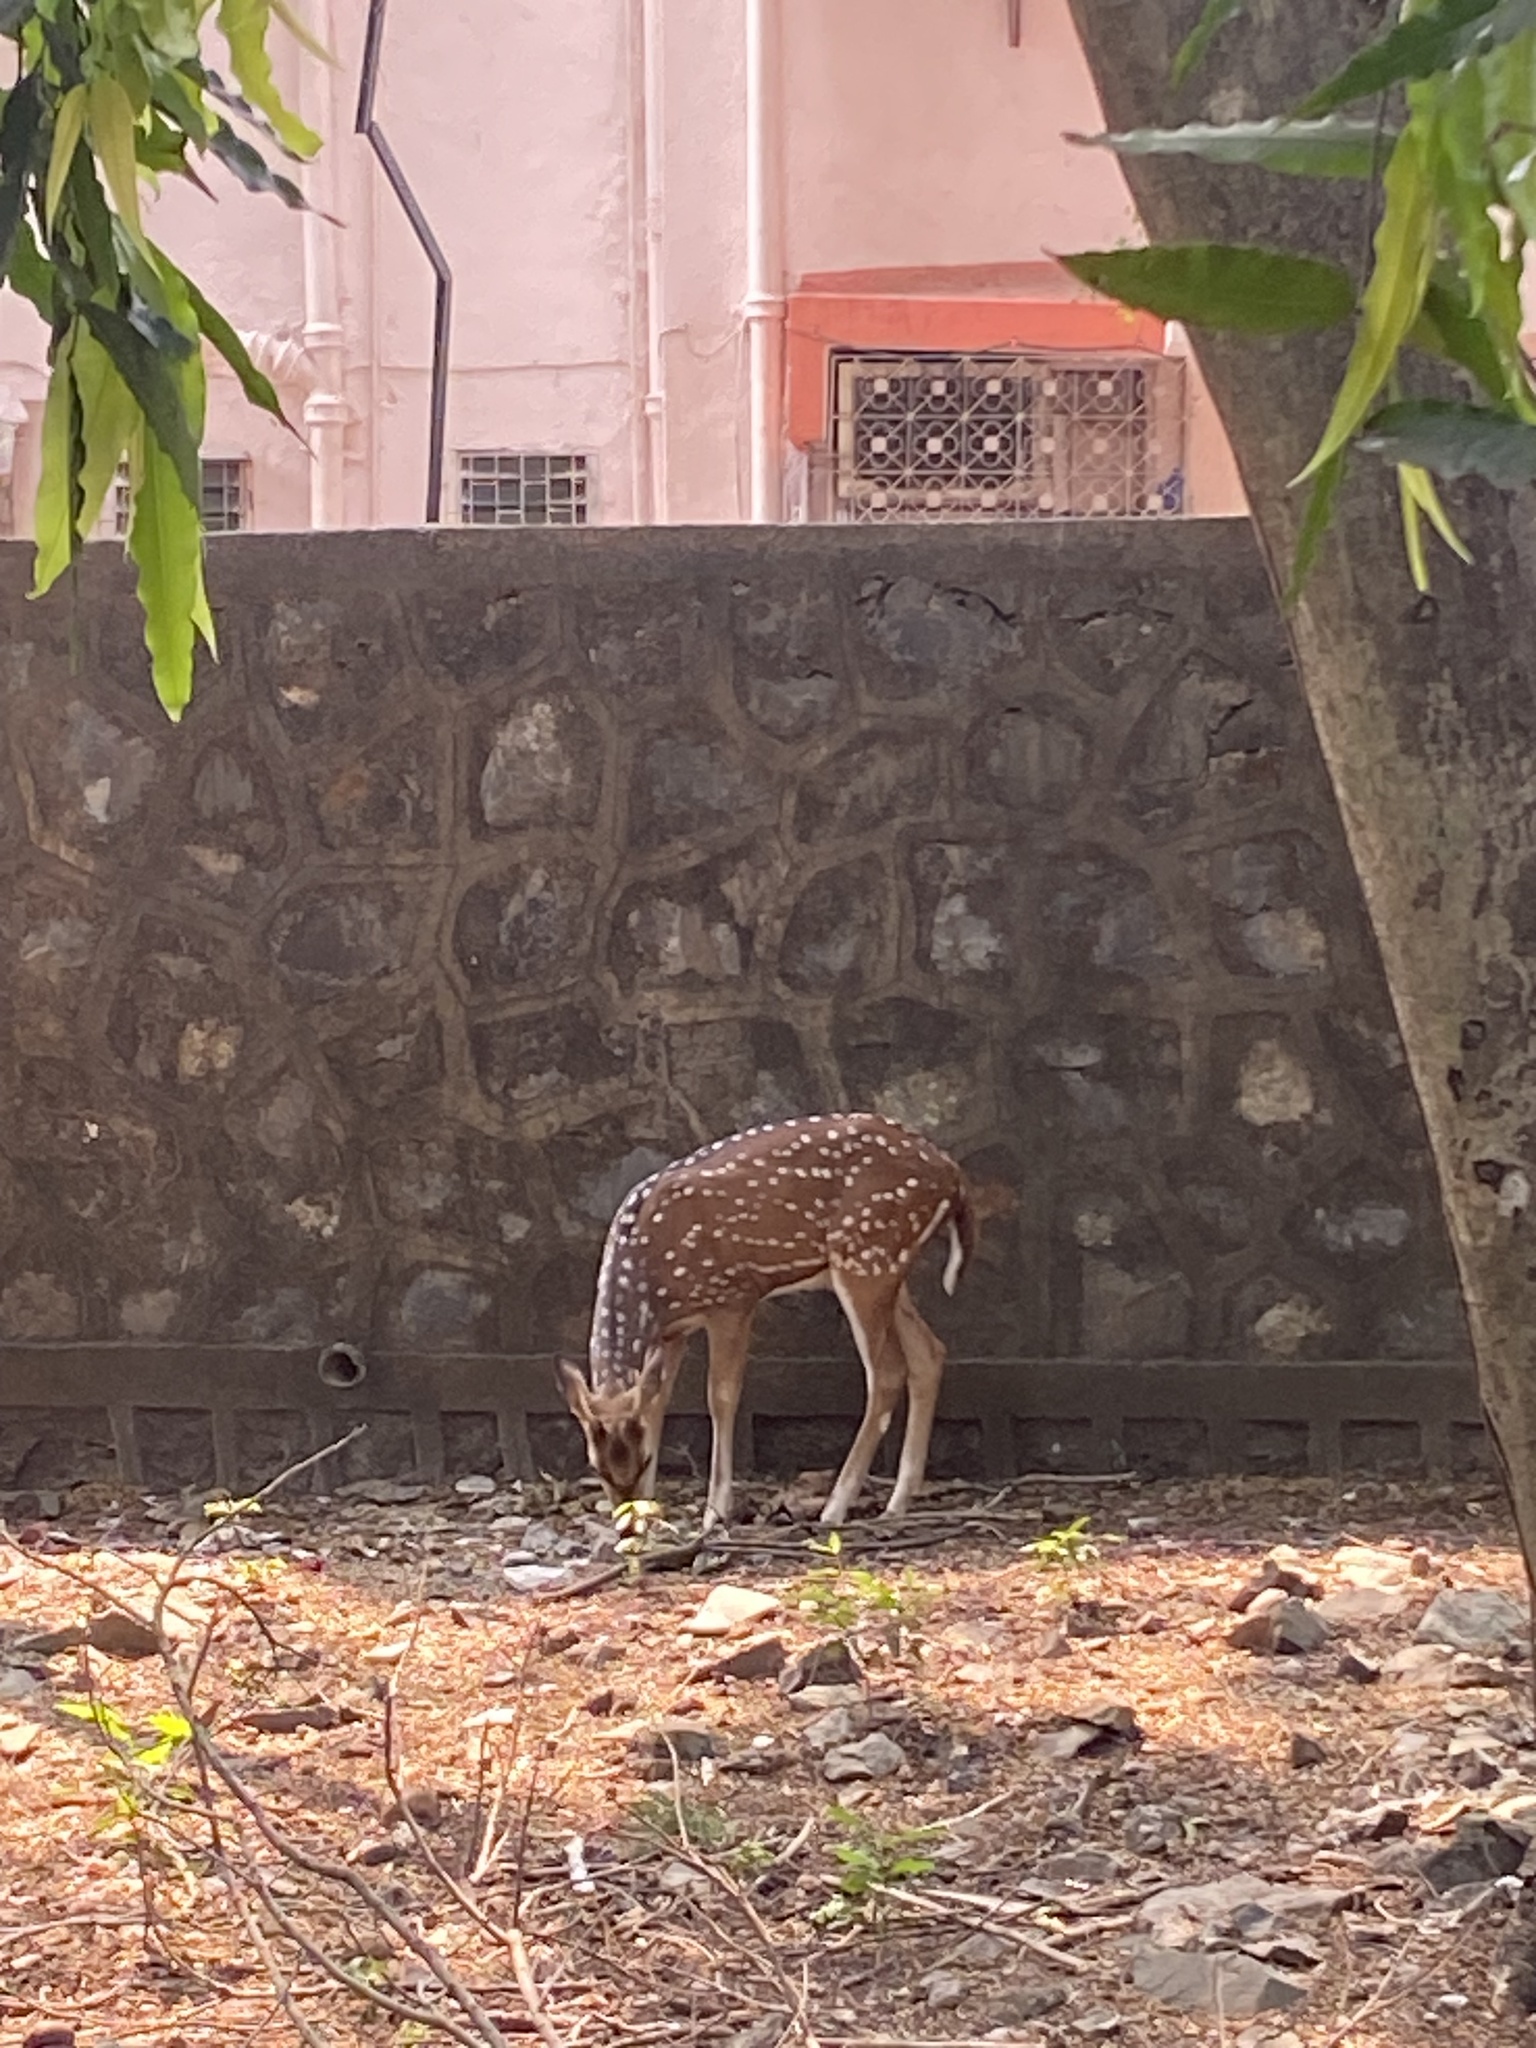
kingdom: Animalia
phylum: Chordata
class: Mammalia
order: Artiodactyla
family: Cervidae
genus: Axis
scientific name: Axis axis
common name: Chital
